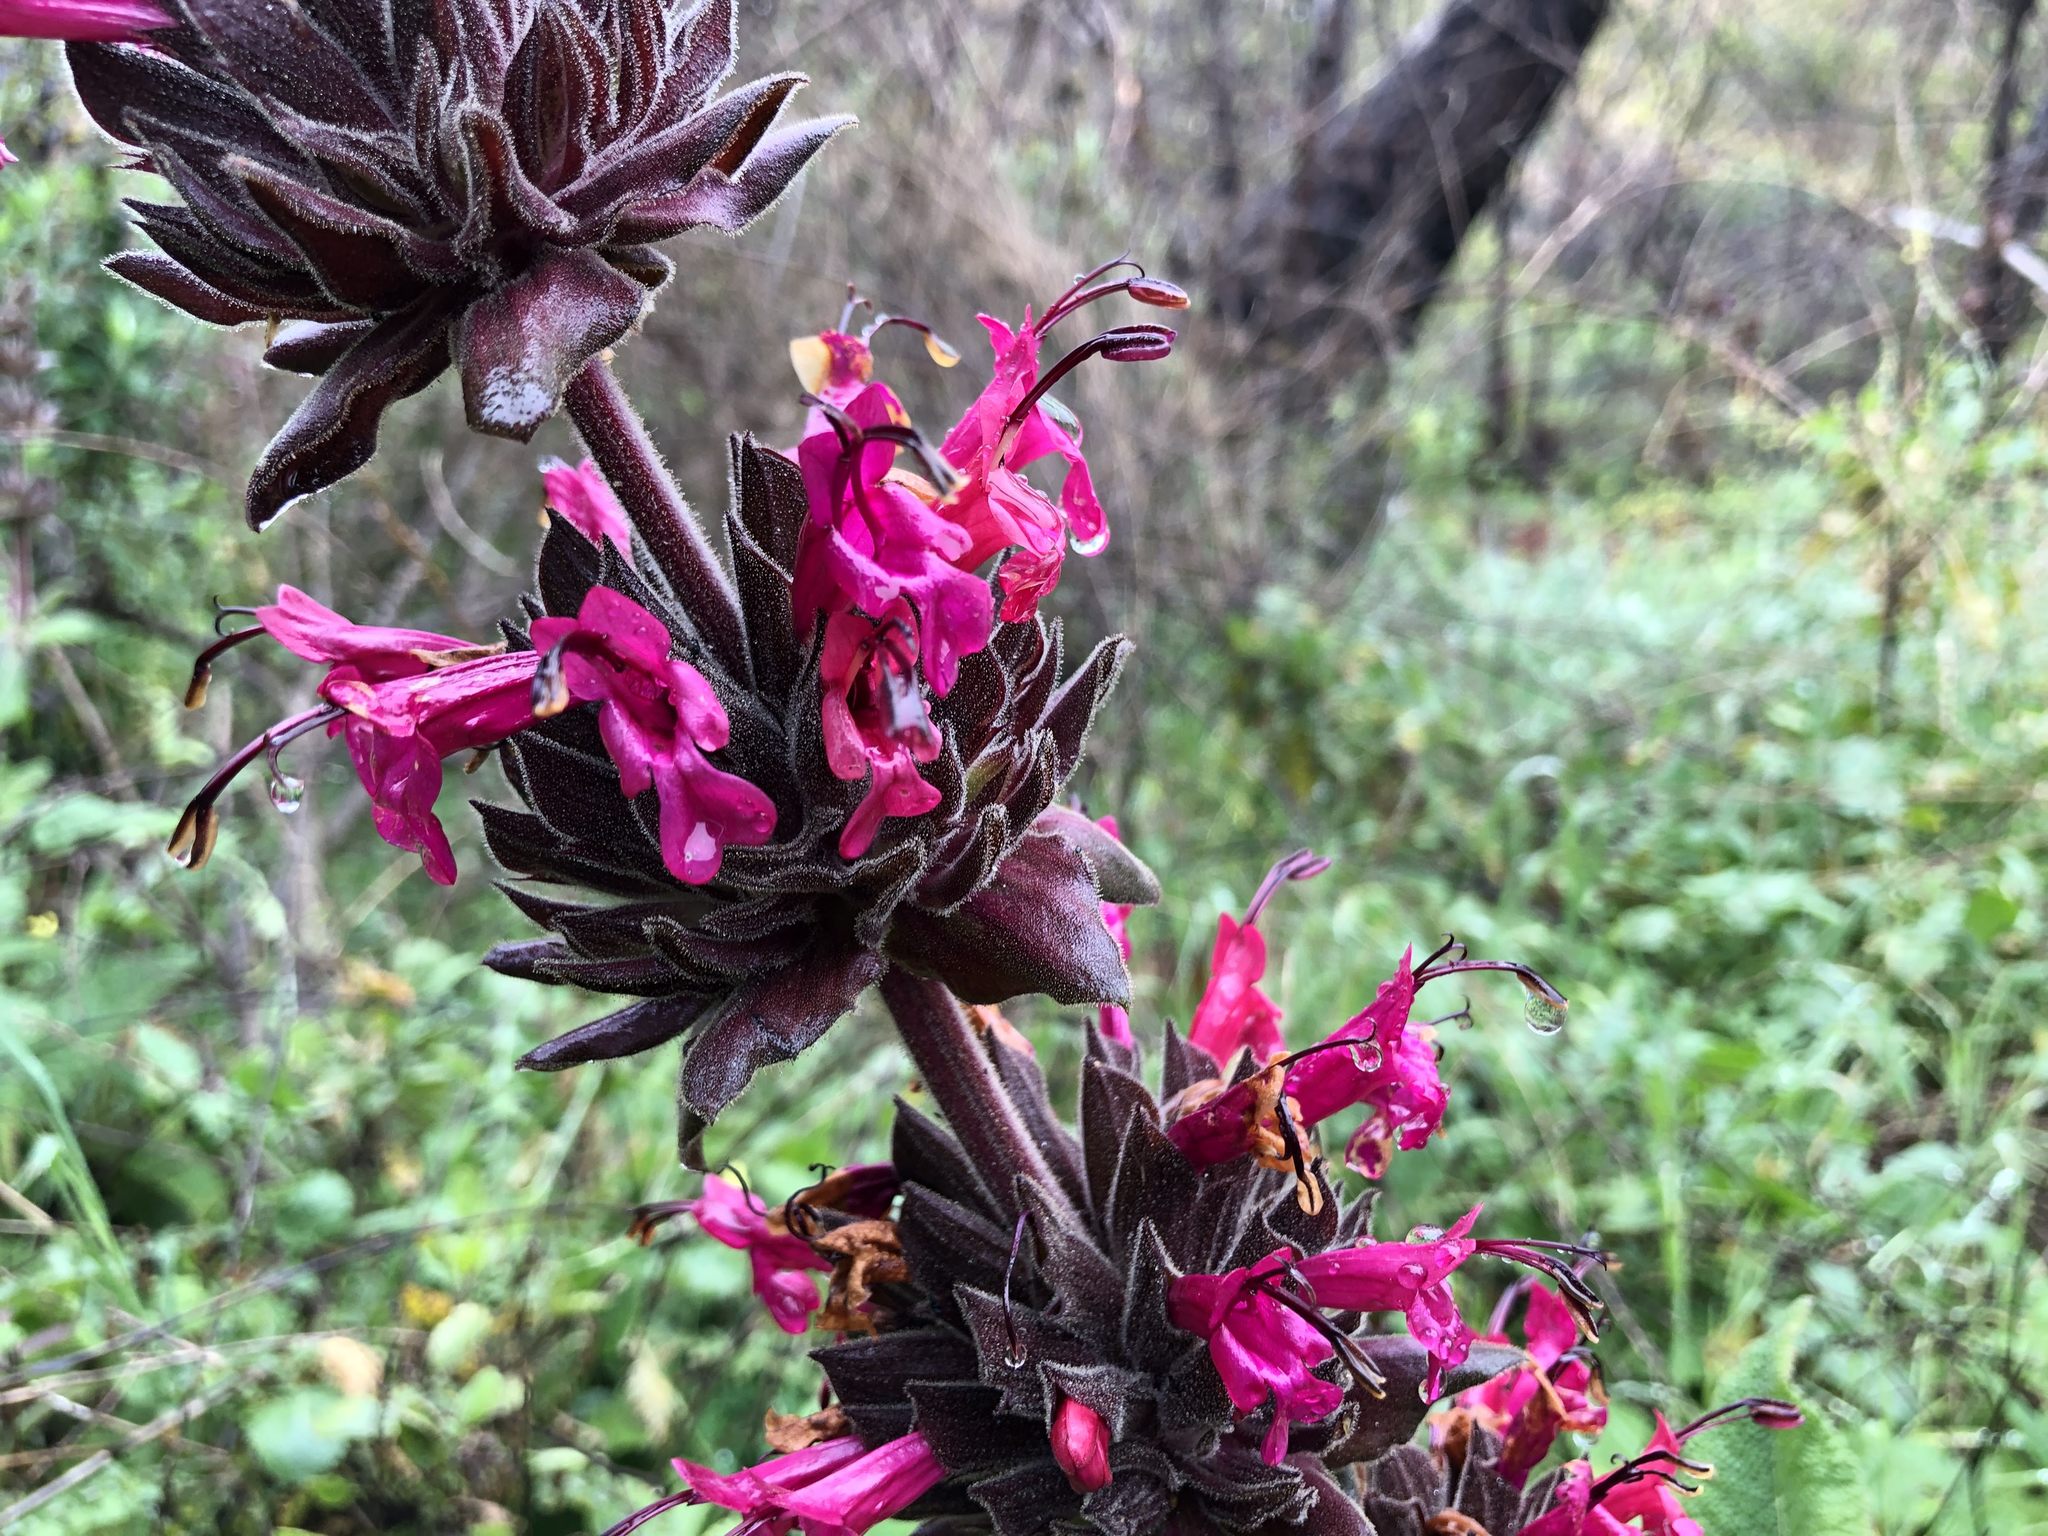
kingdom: Plantae
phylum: Tracheophyta
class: Magnoliopsida
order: Lamiales
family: Lamiaceae
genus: Salvia
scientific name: Salvia spathacea
